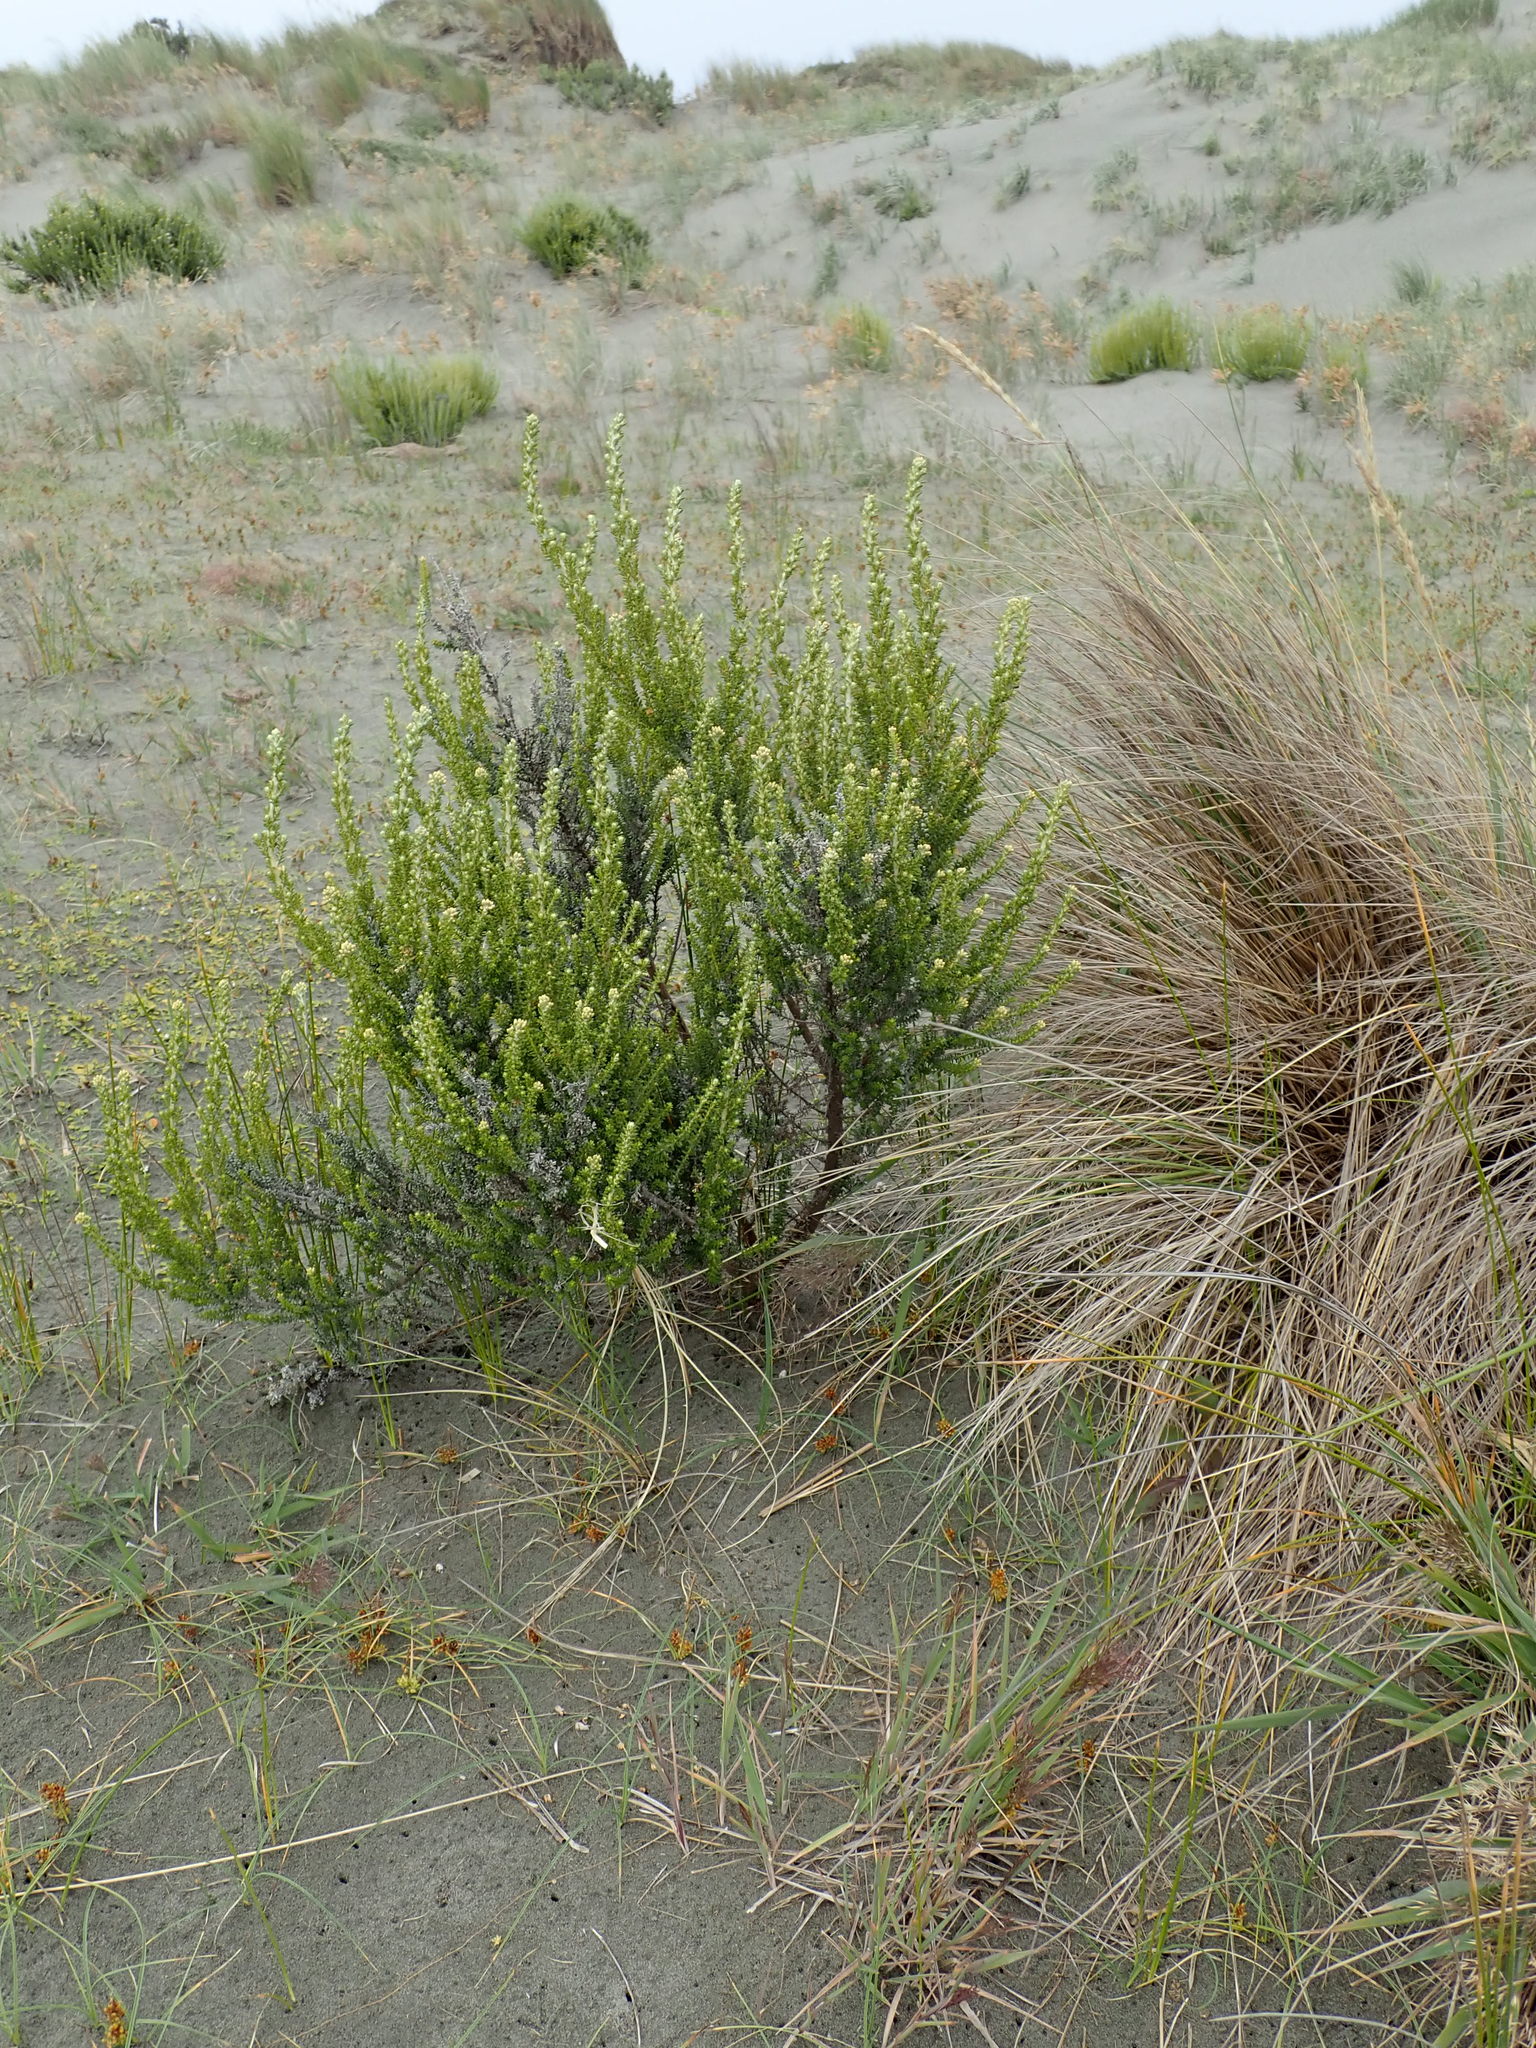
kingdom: Plantae
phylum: Tracheophyta
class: Magnoliopsida
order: Asterales
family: Asteraceae
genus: Ozothamnus
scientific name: Ozothamnus leptophyllus
